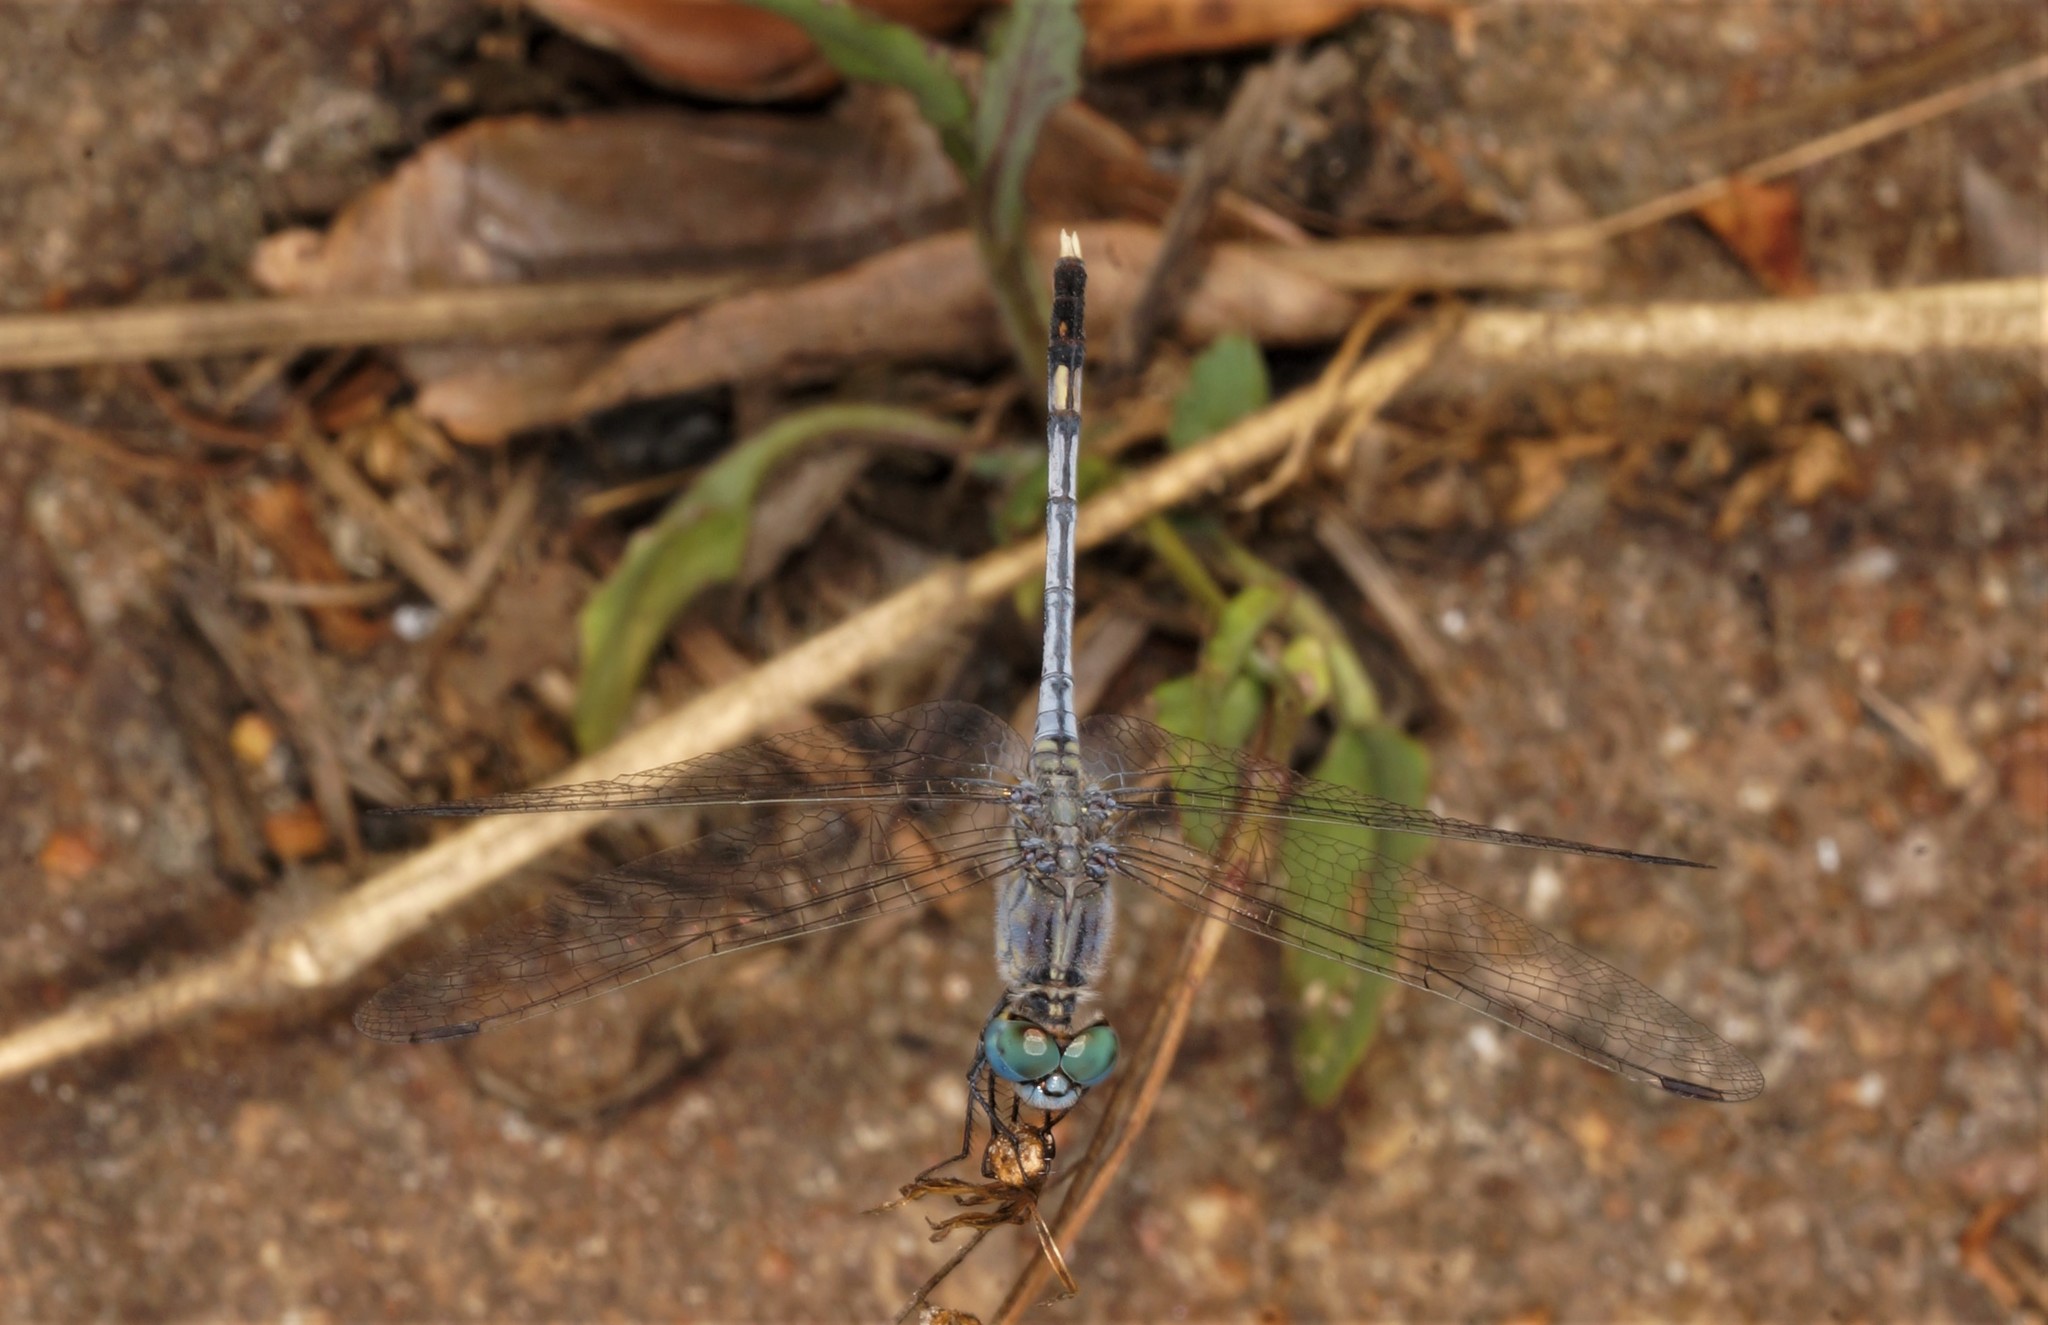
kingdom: Animalia
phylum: Arthropoda
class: Insecta
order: Odonata
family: Libellulidae
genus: Diplacodes
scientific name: Diplacodes trivialis
